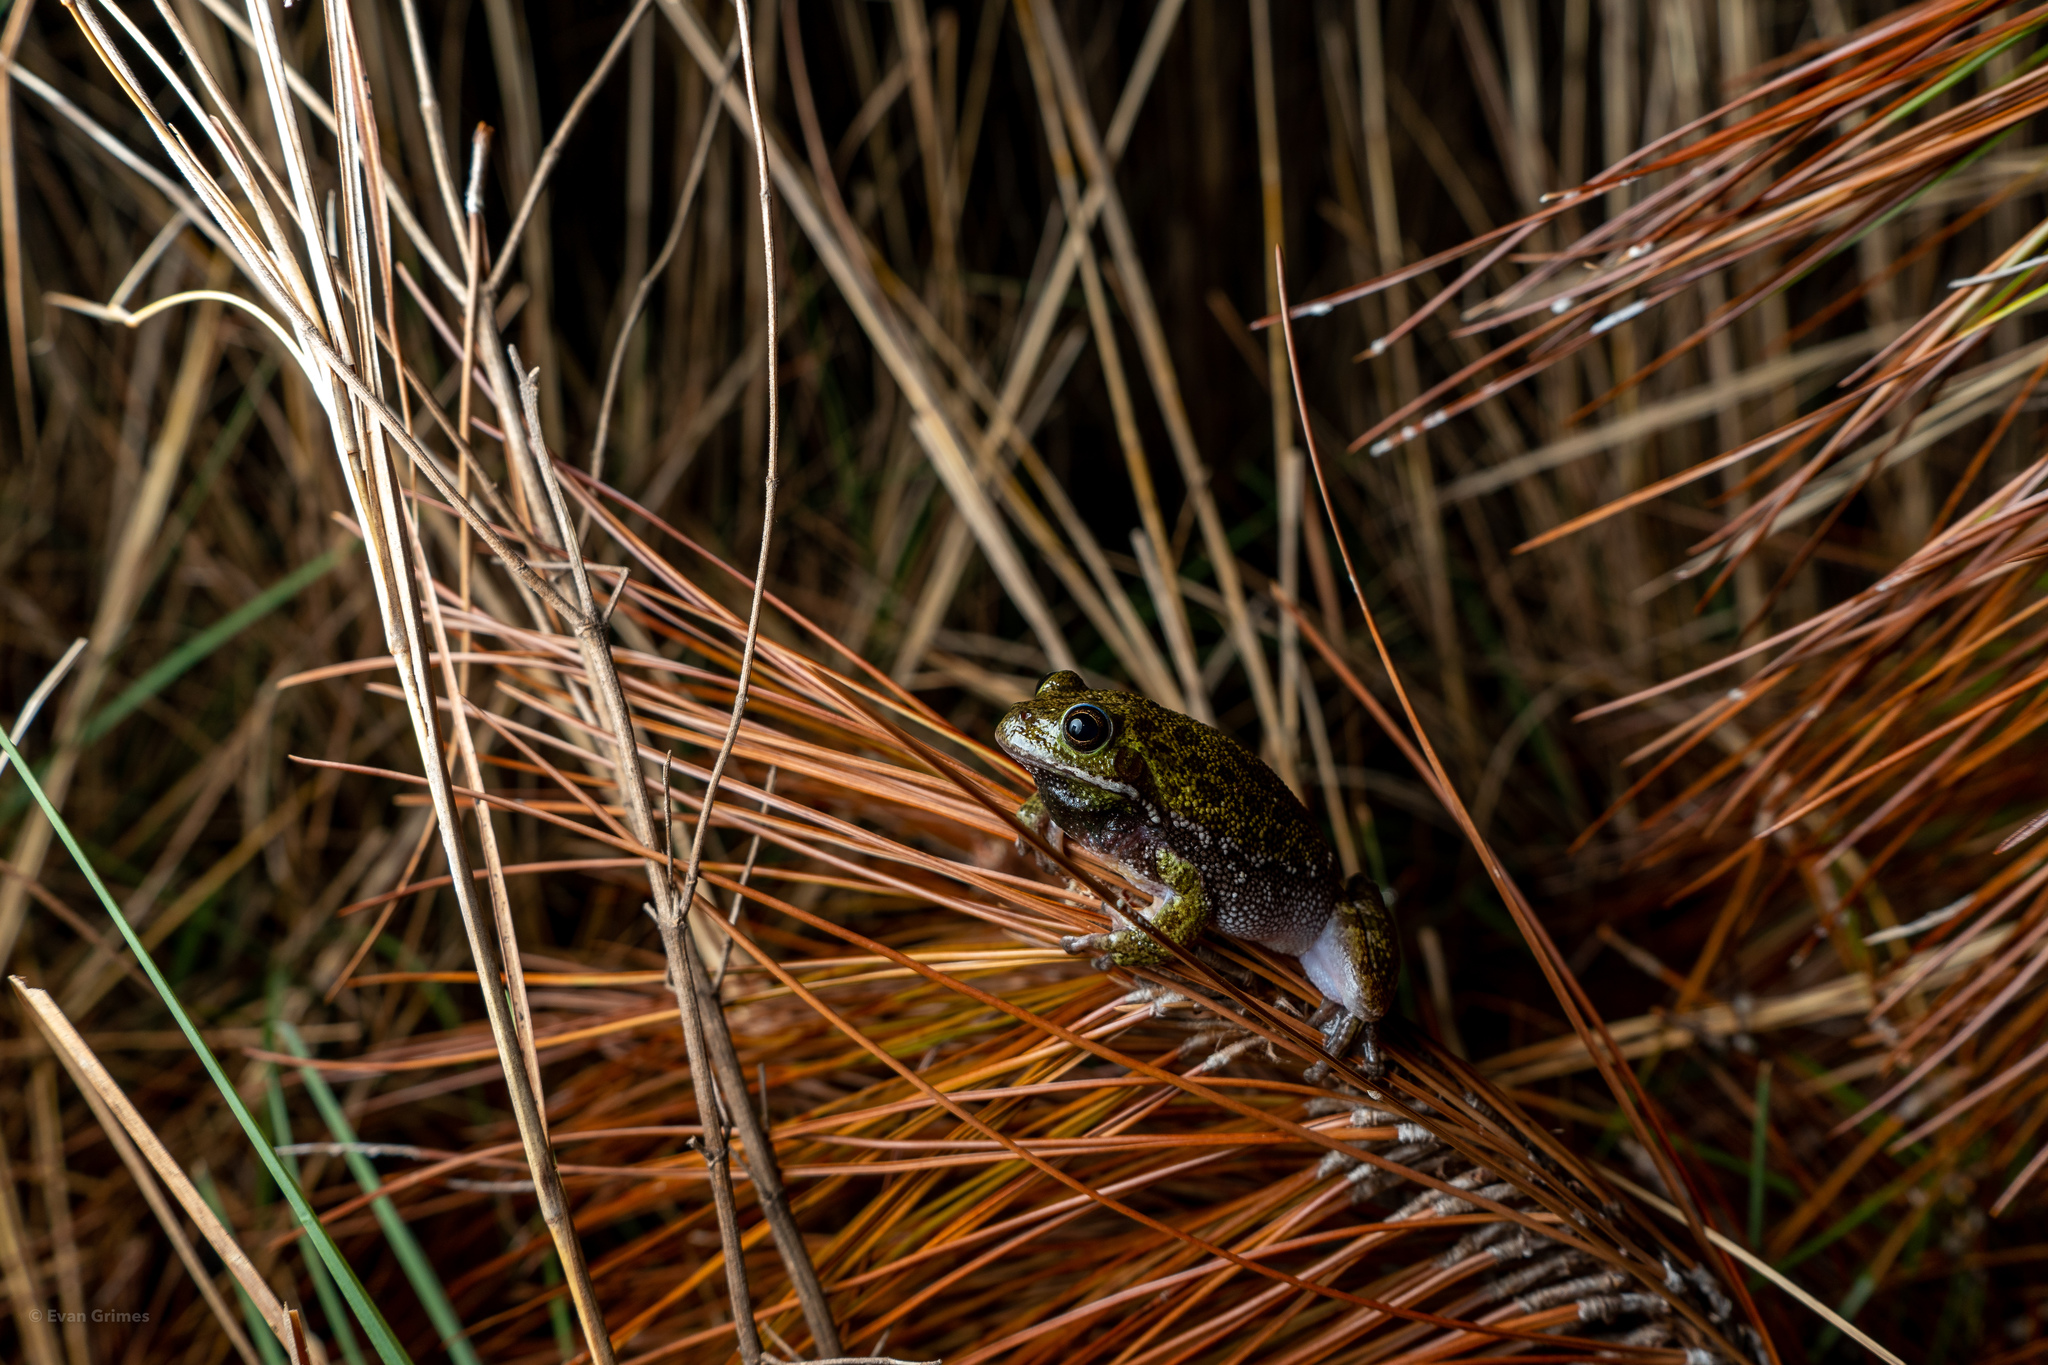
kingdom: Animalia
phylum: Chordata
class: Amphibia
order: Anura
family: Hylidae
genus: Dryophytes
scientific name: Dryophytes gratiosus
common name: Barking treefrog
